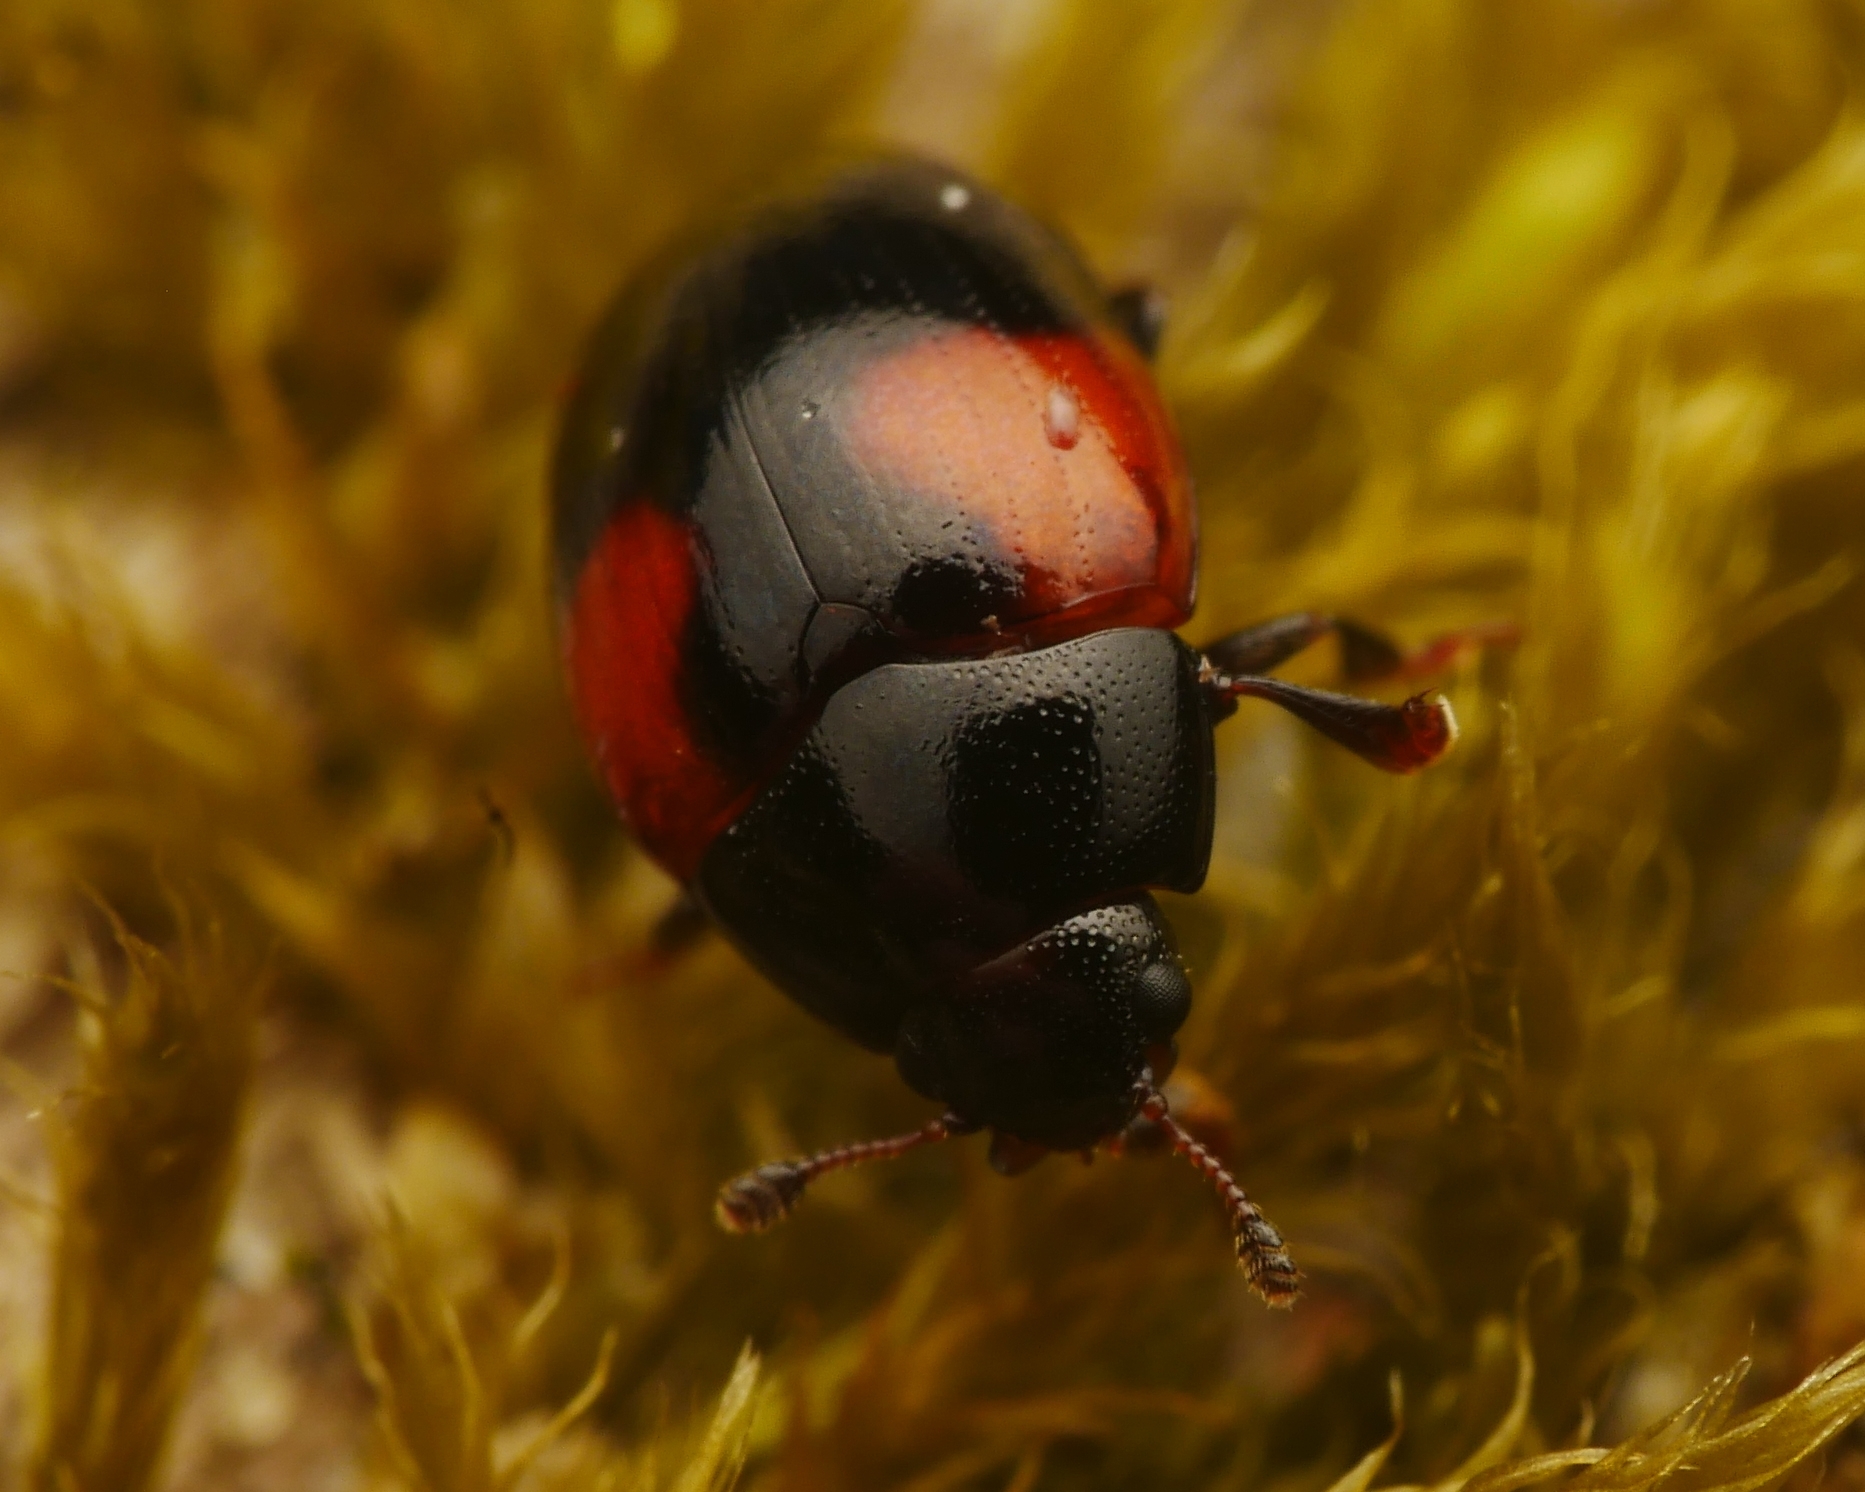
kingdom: Animalia
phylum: Arthropoda
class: Insecta
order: Coleoptera
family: Erotylidae
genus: Tritoma
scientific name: Tritoma bipustulata
